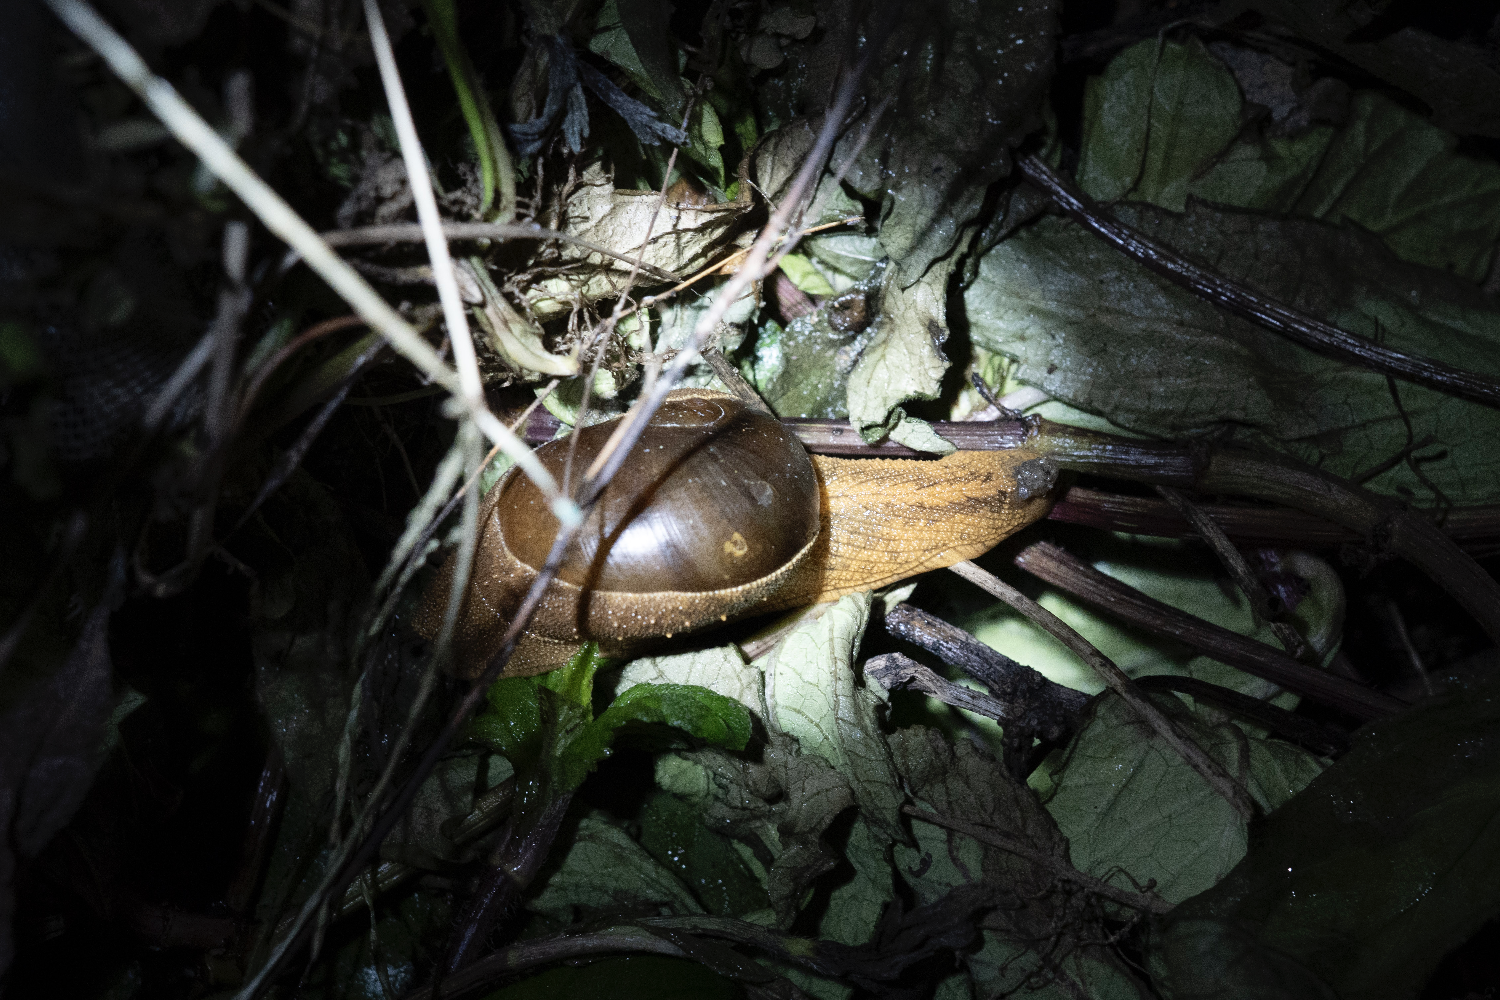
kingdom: Animalia
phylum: Mollusca
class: Gastropoda
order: Stylommatophora
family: Ariophantidae
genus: Megaustenia
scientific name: Megaustenia imperator
